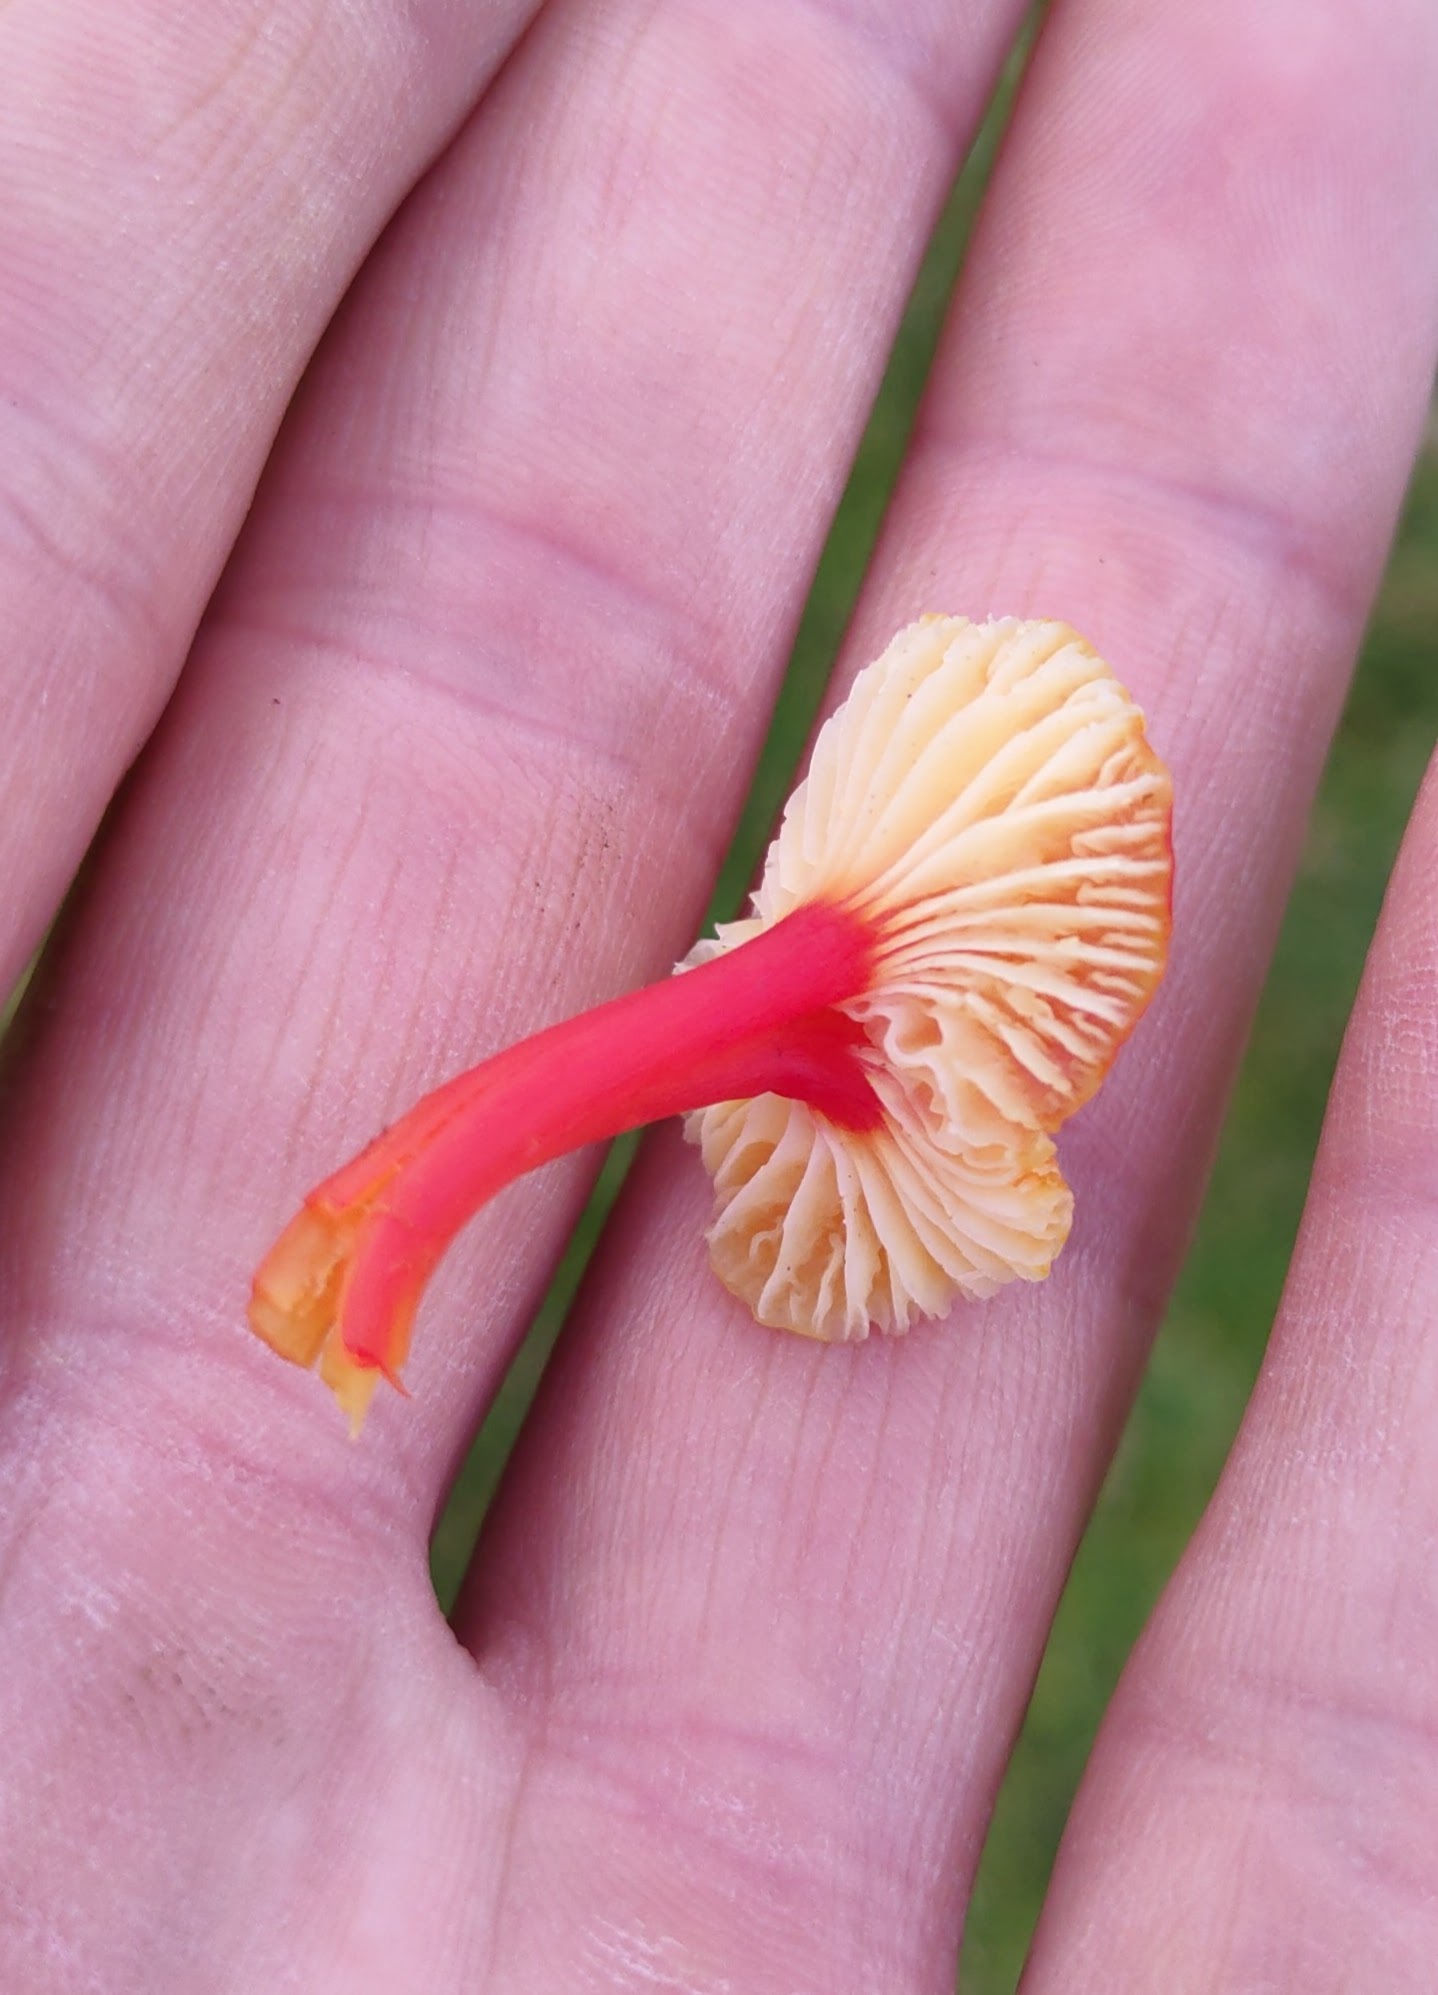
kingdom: Fungi
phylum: Basidiomycota
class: Agaricomycetes
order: Agaricales
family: Hygrophoraceae
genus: Hygrocybe
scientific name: Hygrocybe lepida
